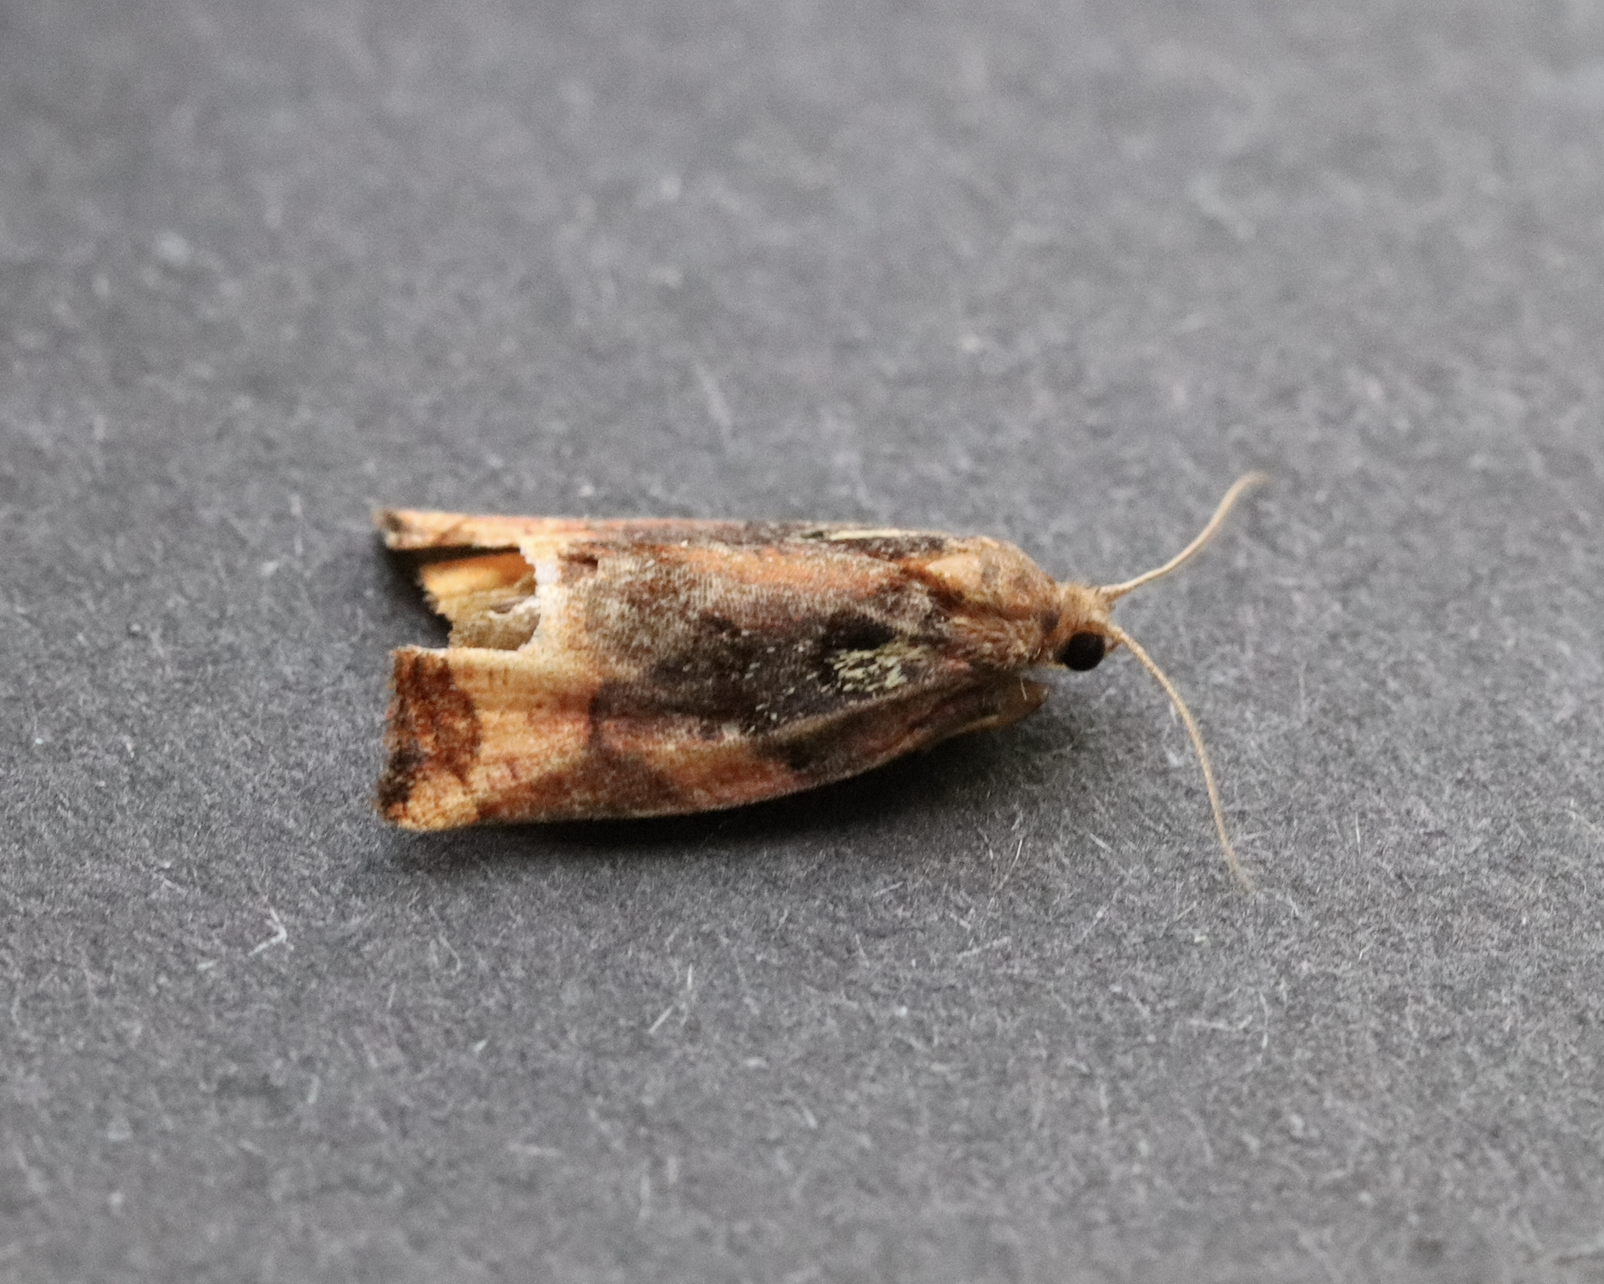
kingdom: Animalia
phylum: Arthropoda
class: Insecta
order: Lepidoptera
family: Tortricidae
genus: Archips
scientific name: Archips podana
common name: Large fruit-tree tortrix
